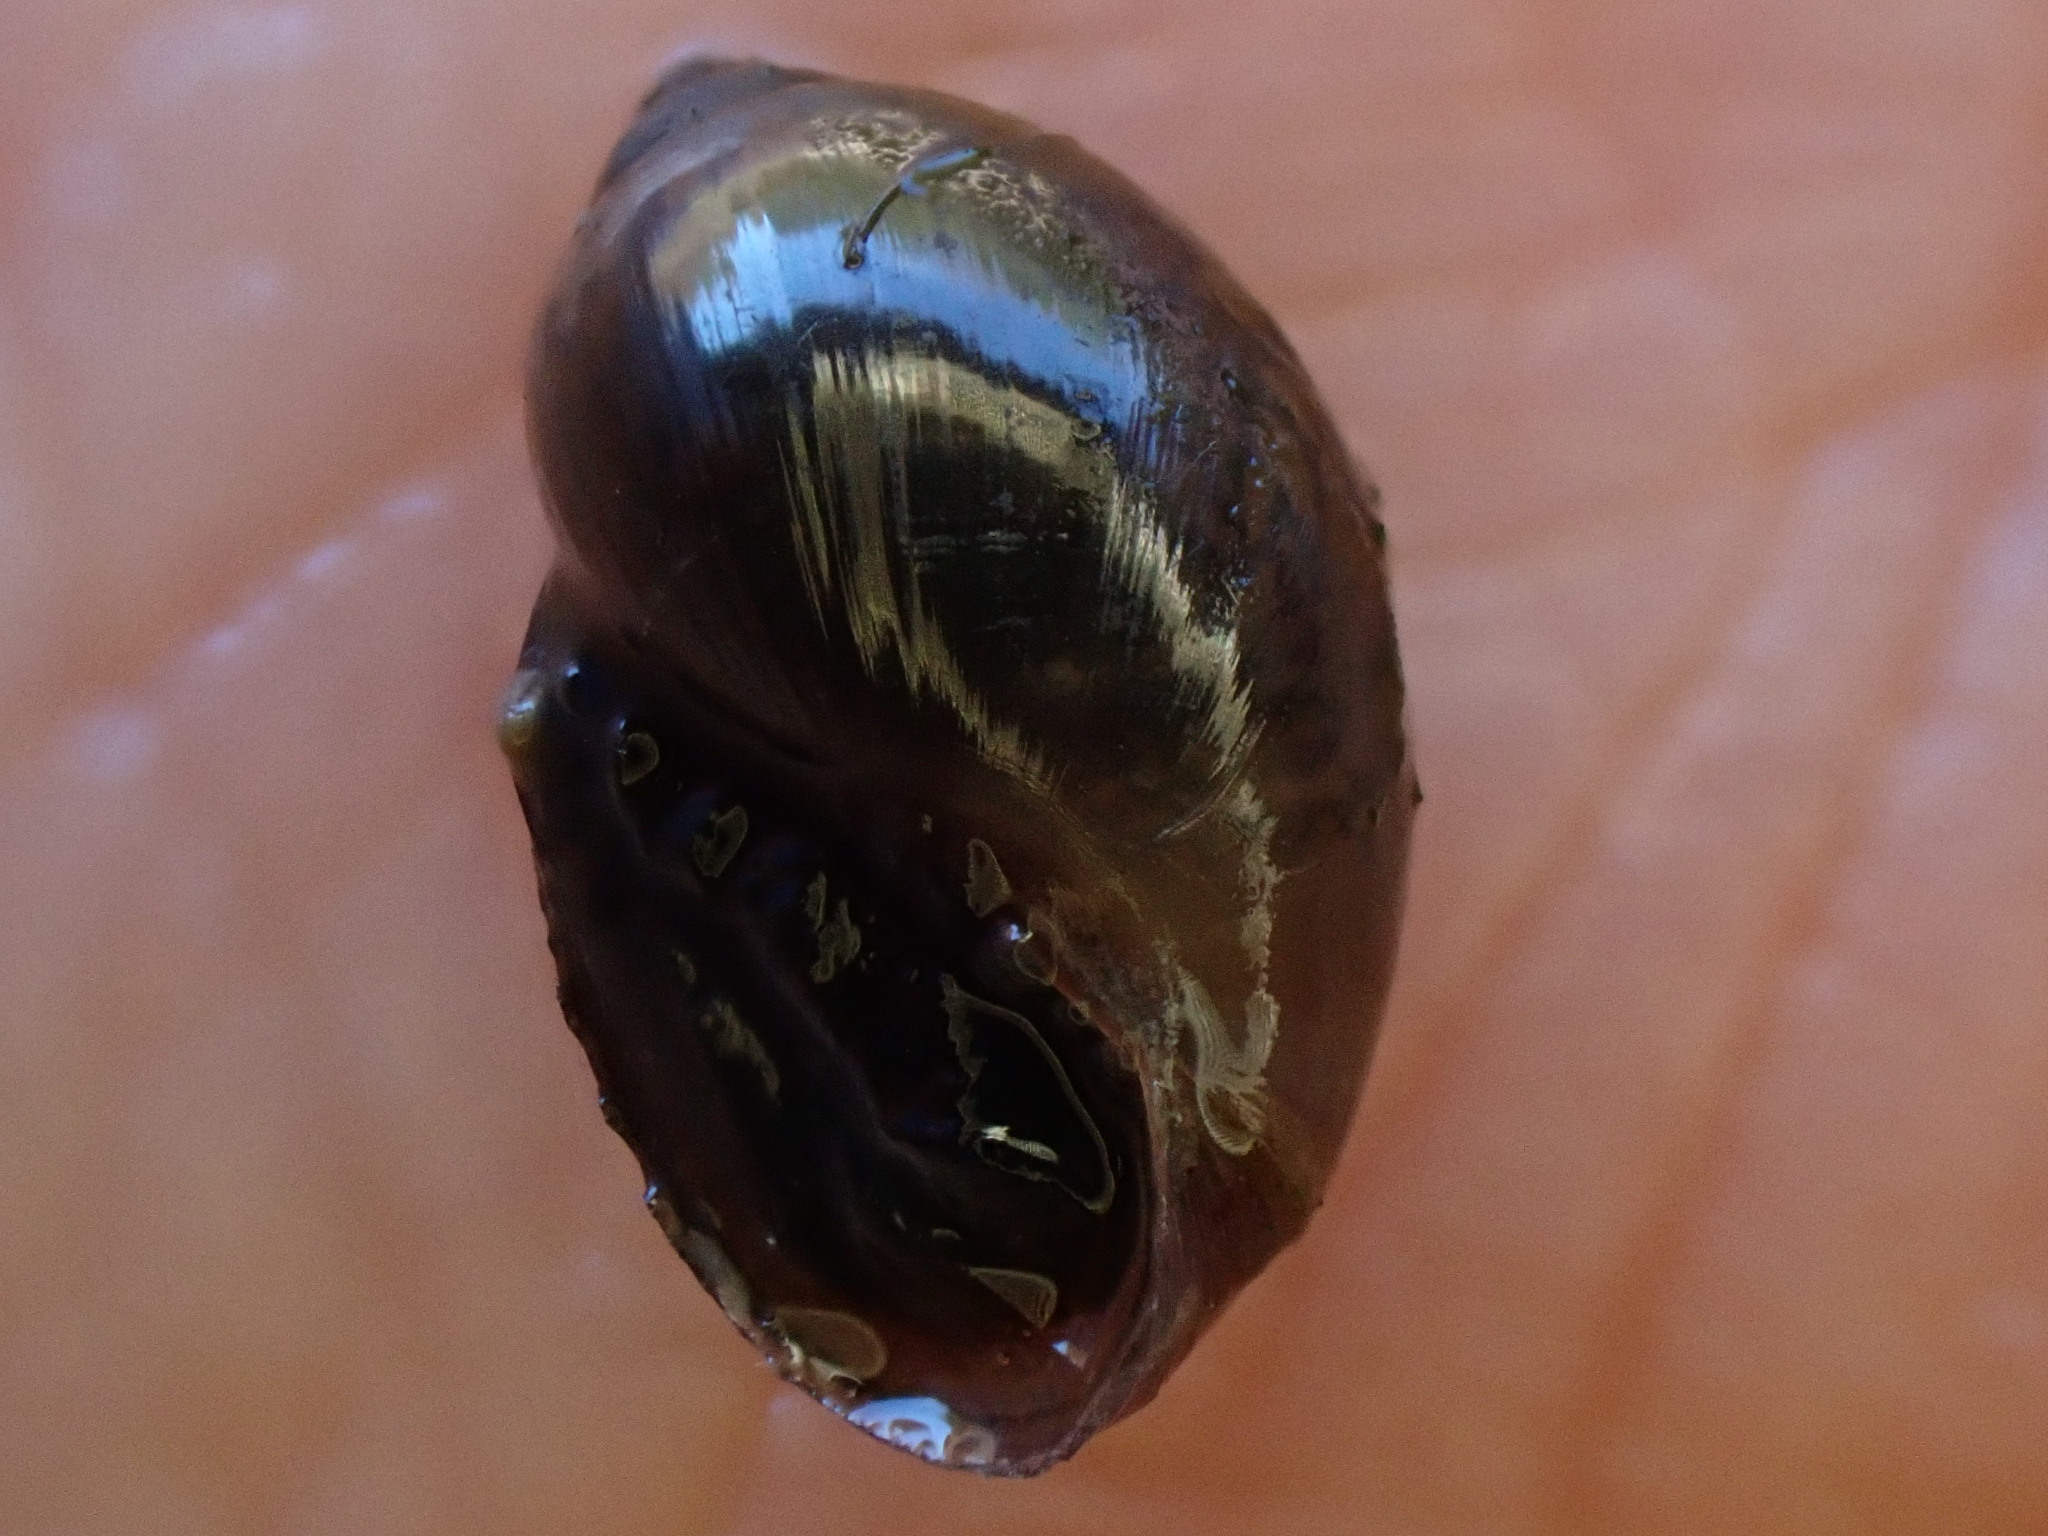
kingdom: Animalia
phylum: Mollusca
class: Gastropoda
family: Physidae
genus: Physella
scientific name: Physella acuta
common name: European physa
